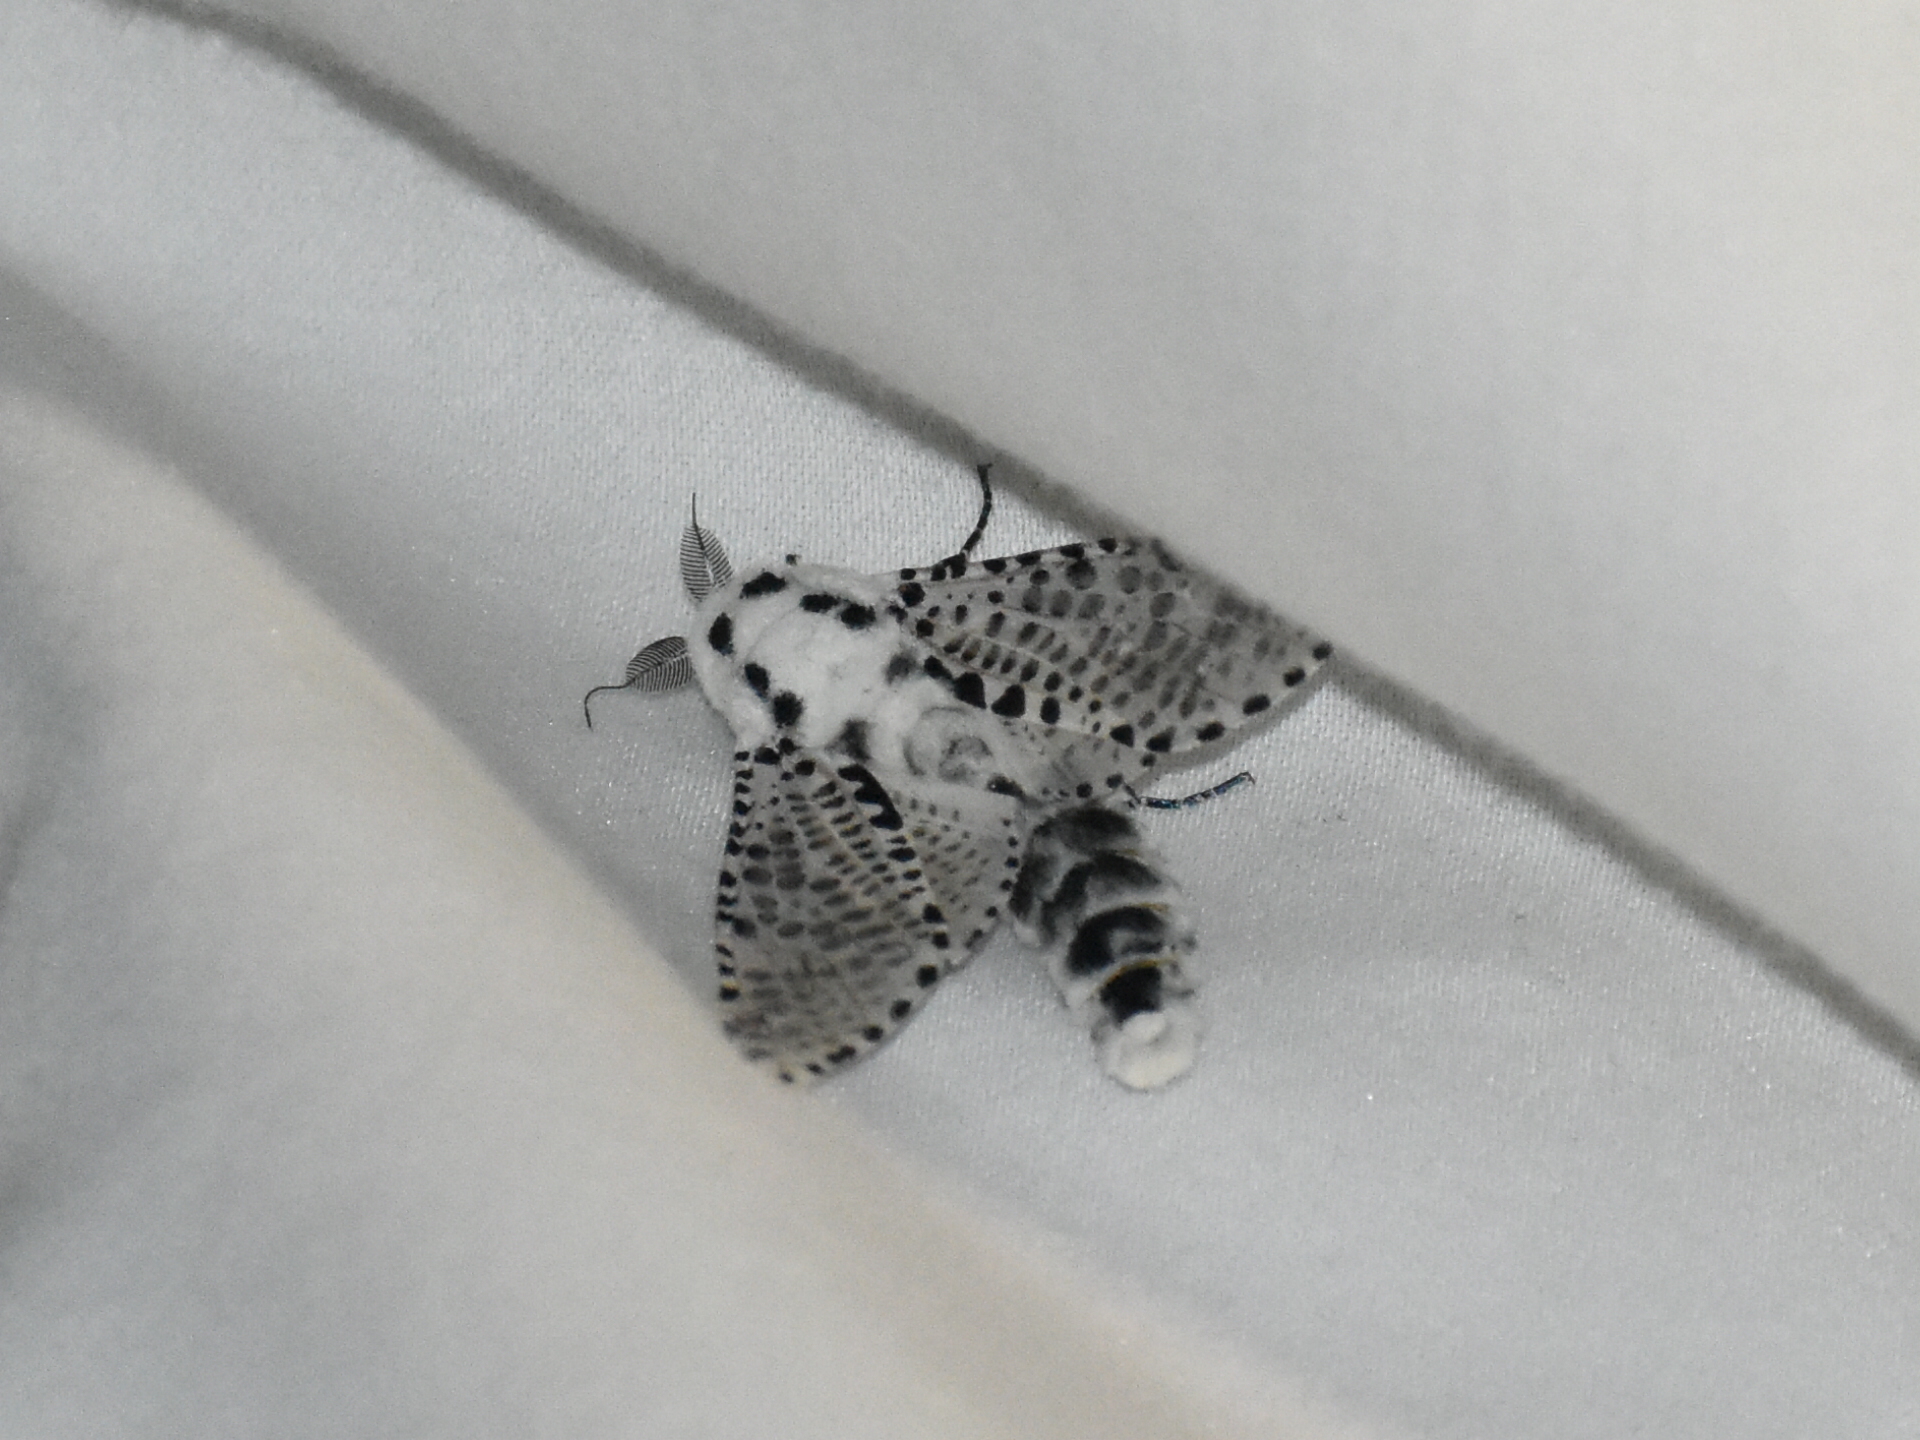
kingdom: Animalia
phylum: Arthropoda
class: Insecta
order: Lepidoptera
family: Cossidae
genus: Zeuzera
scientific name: Zeuzera pyrina
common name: Leopard moth
